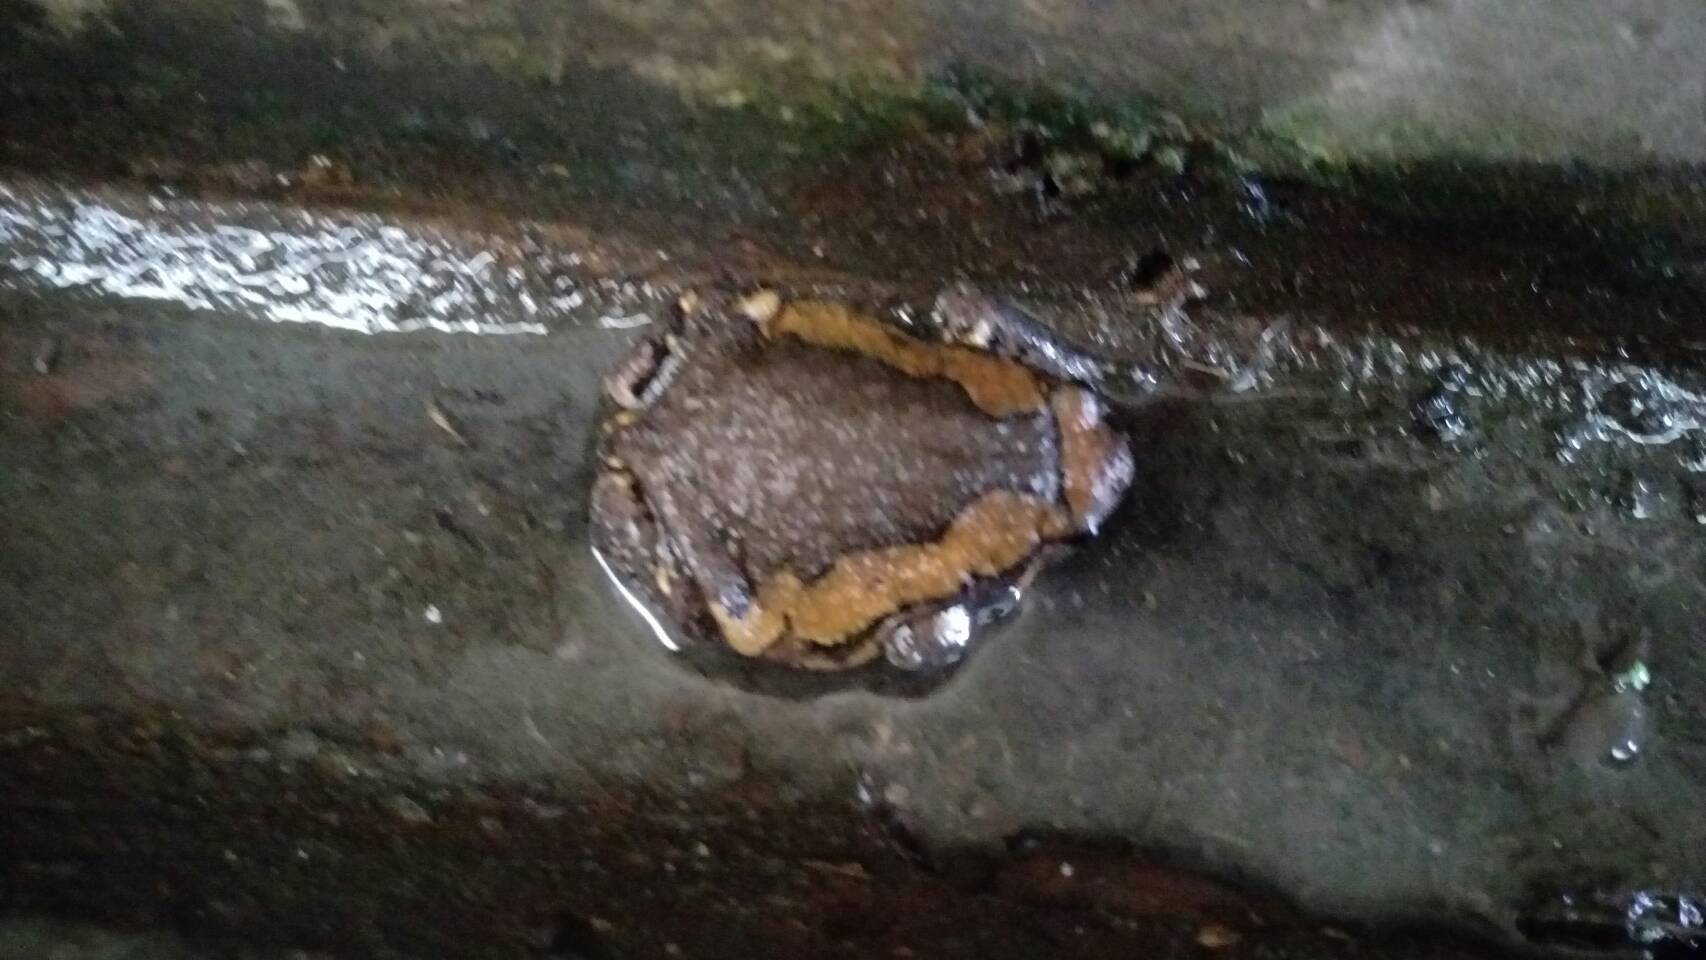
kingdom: Animalia
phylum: Chordata
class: Amphibia
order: Anura
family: Microhylidae
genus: Kaloula
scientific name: Kaloula pulchra
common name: Common,banded bullfrog
